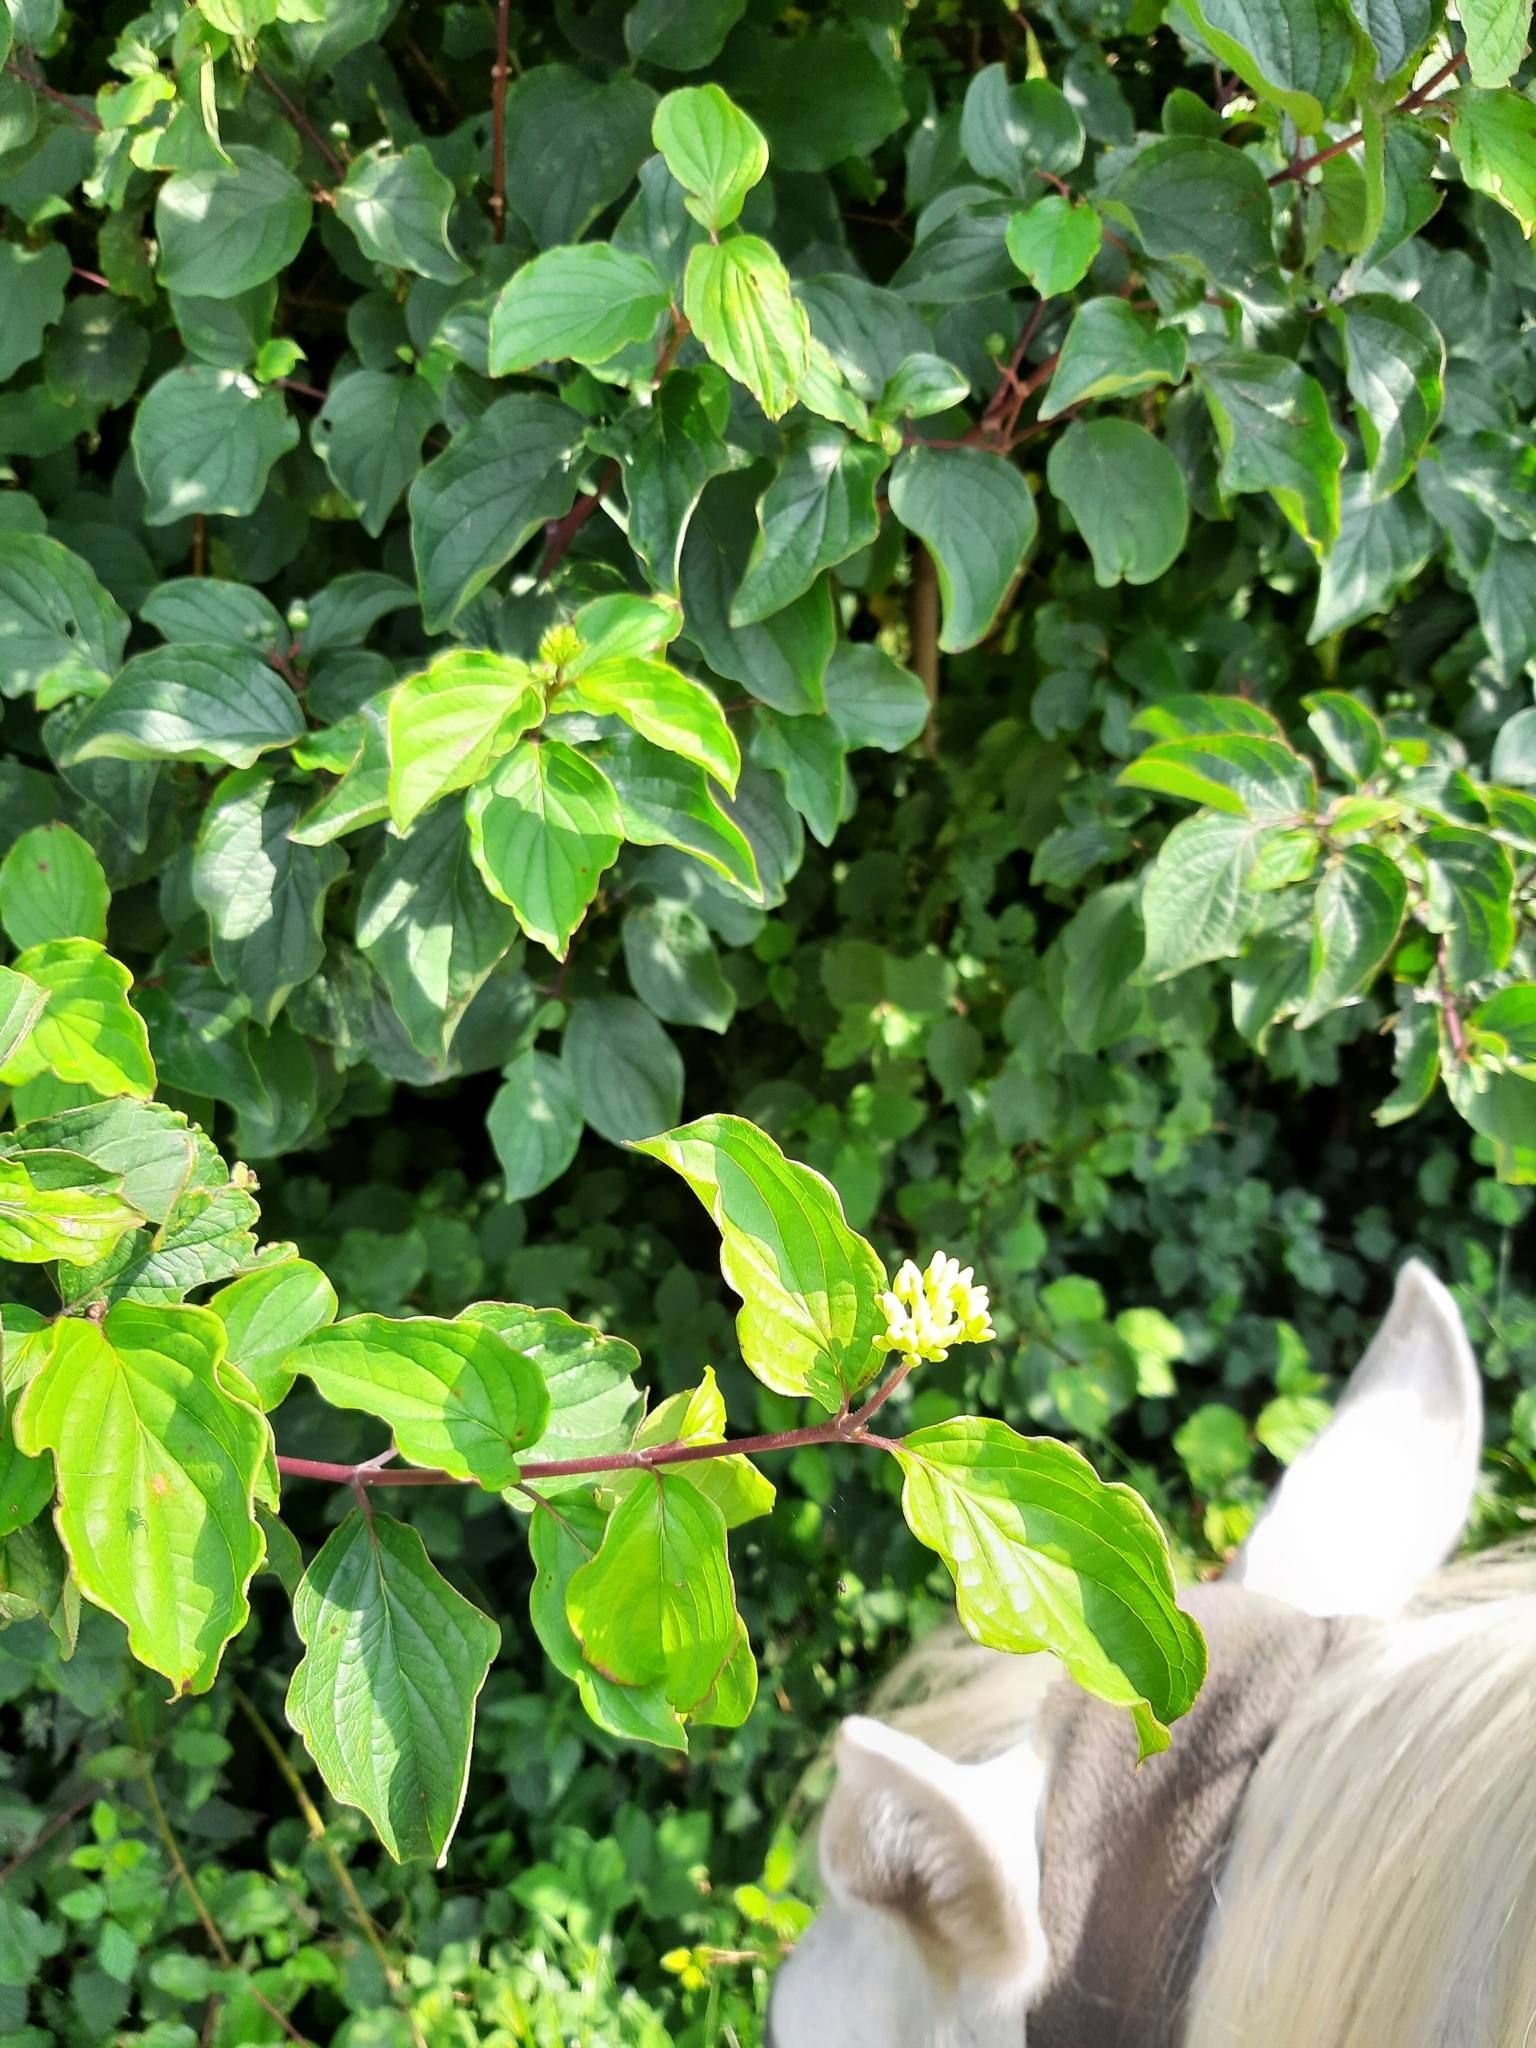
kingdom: Plantae
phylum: Tracheophyta
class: Magnoliopsida
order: Cornales
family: Cornaceae
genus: Cornus
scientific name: Cornus sanguinea
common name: Dogwood
